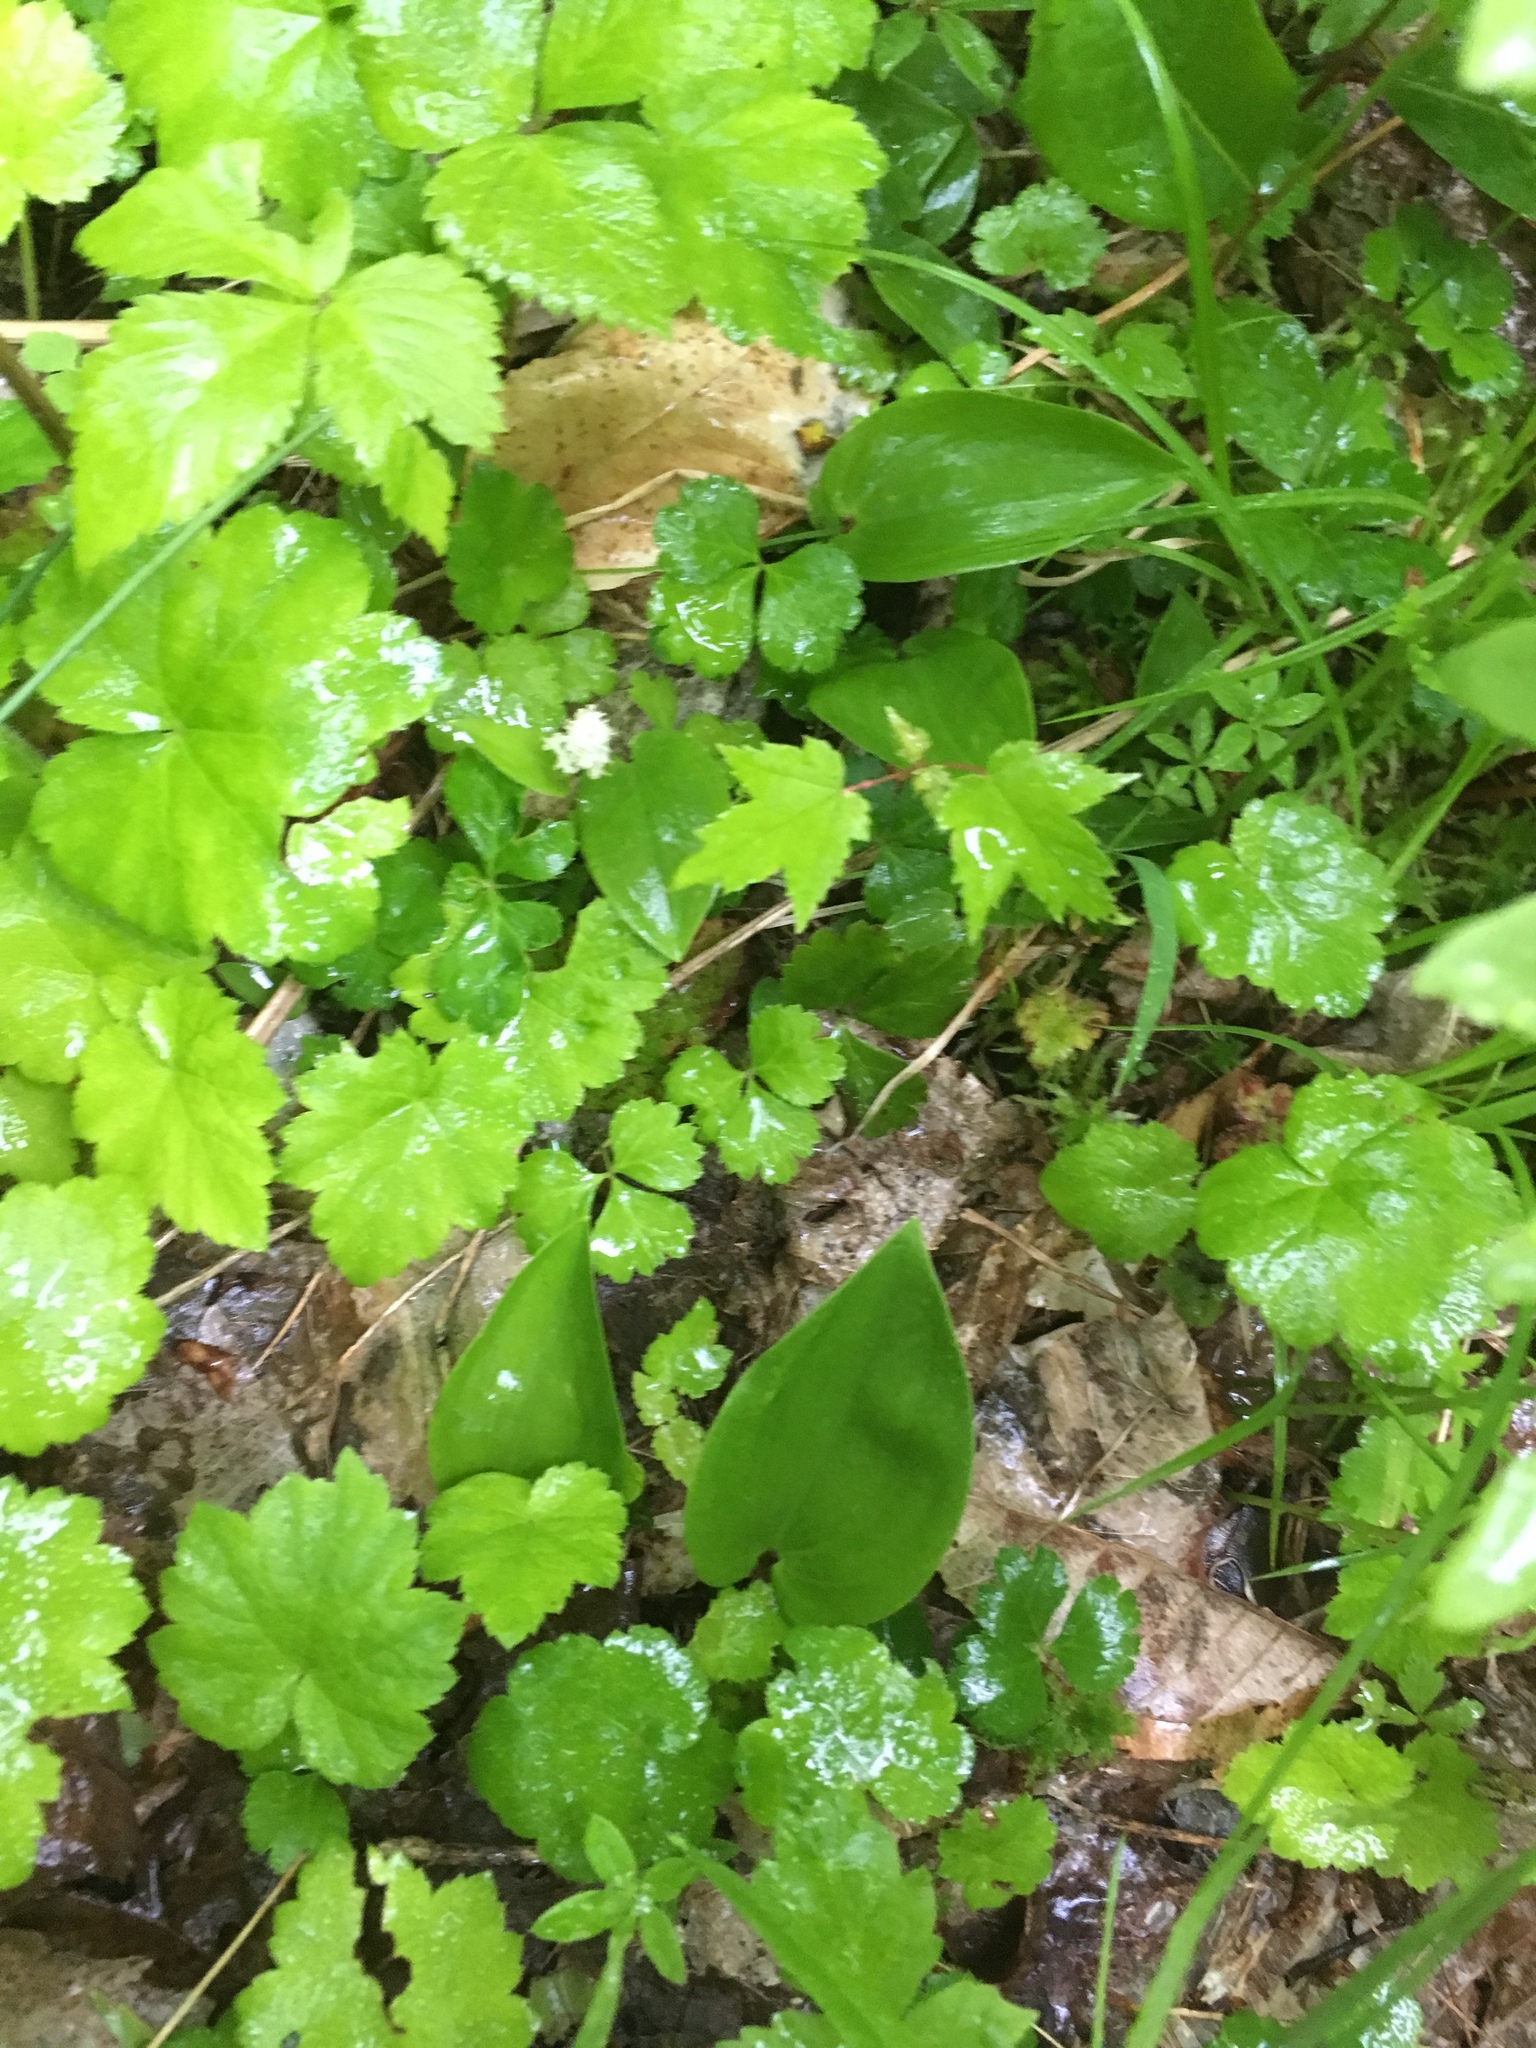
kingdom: Plantae
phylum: Tracheophyta
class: Magnoliopsida
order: Ranunculales
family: Ranunculaceae
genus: Coptis
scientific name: Coptis trifolia
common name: Canker-root
